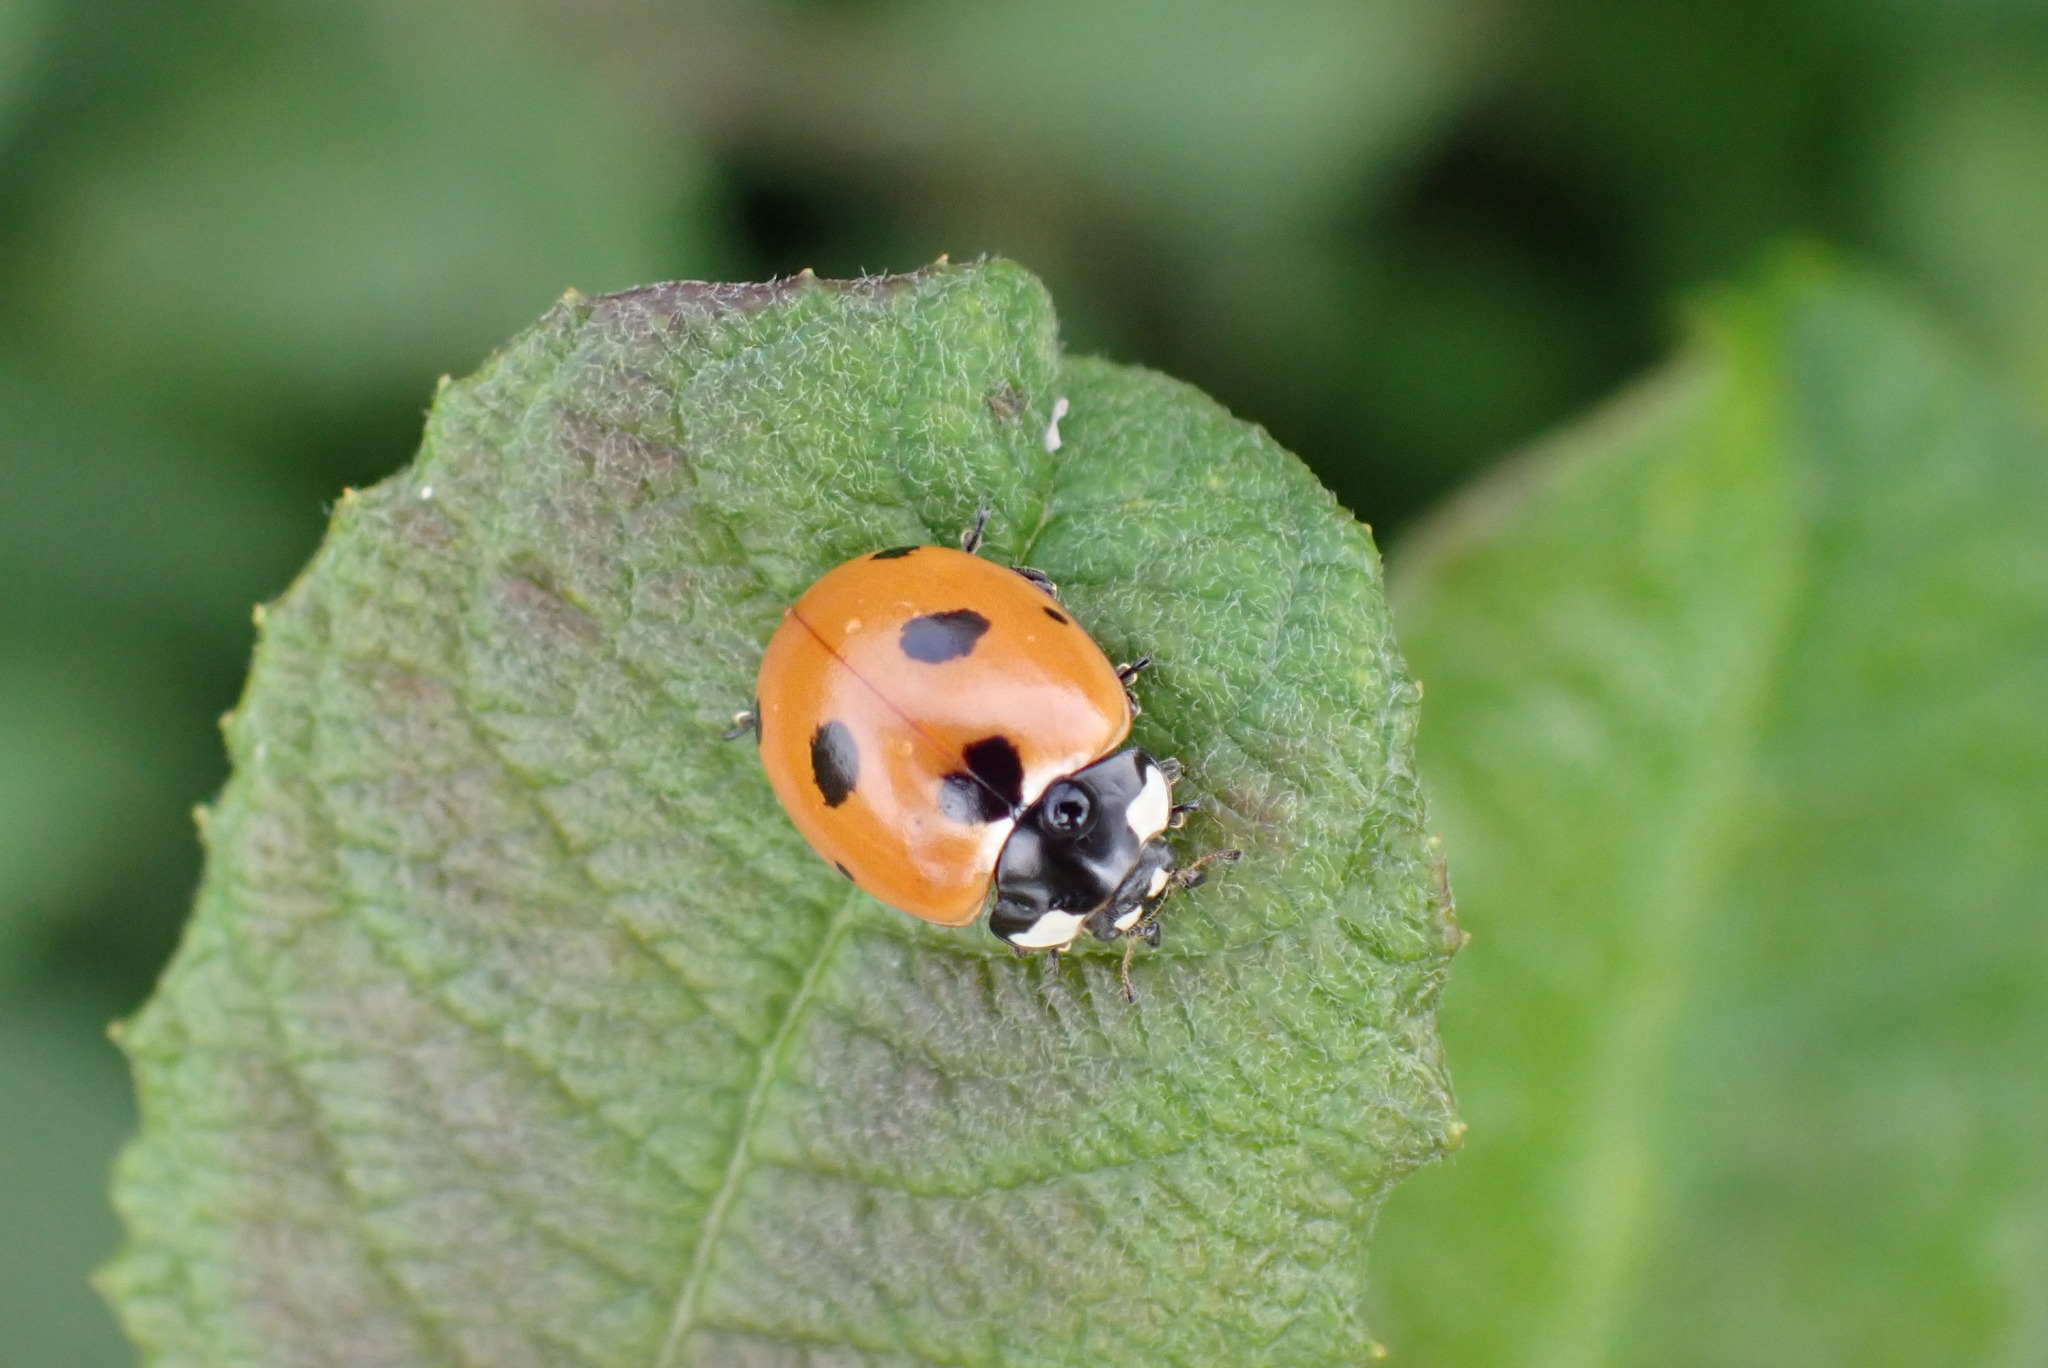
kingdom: Animalia
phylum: Arthropoda
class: Insecta
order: Coleoptera
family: Coccinellidae
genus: Coccinella
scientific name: Coccinella septempunctata
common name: Sevenspotted lady beetle
